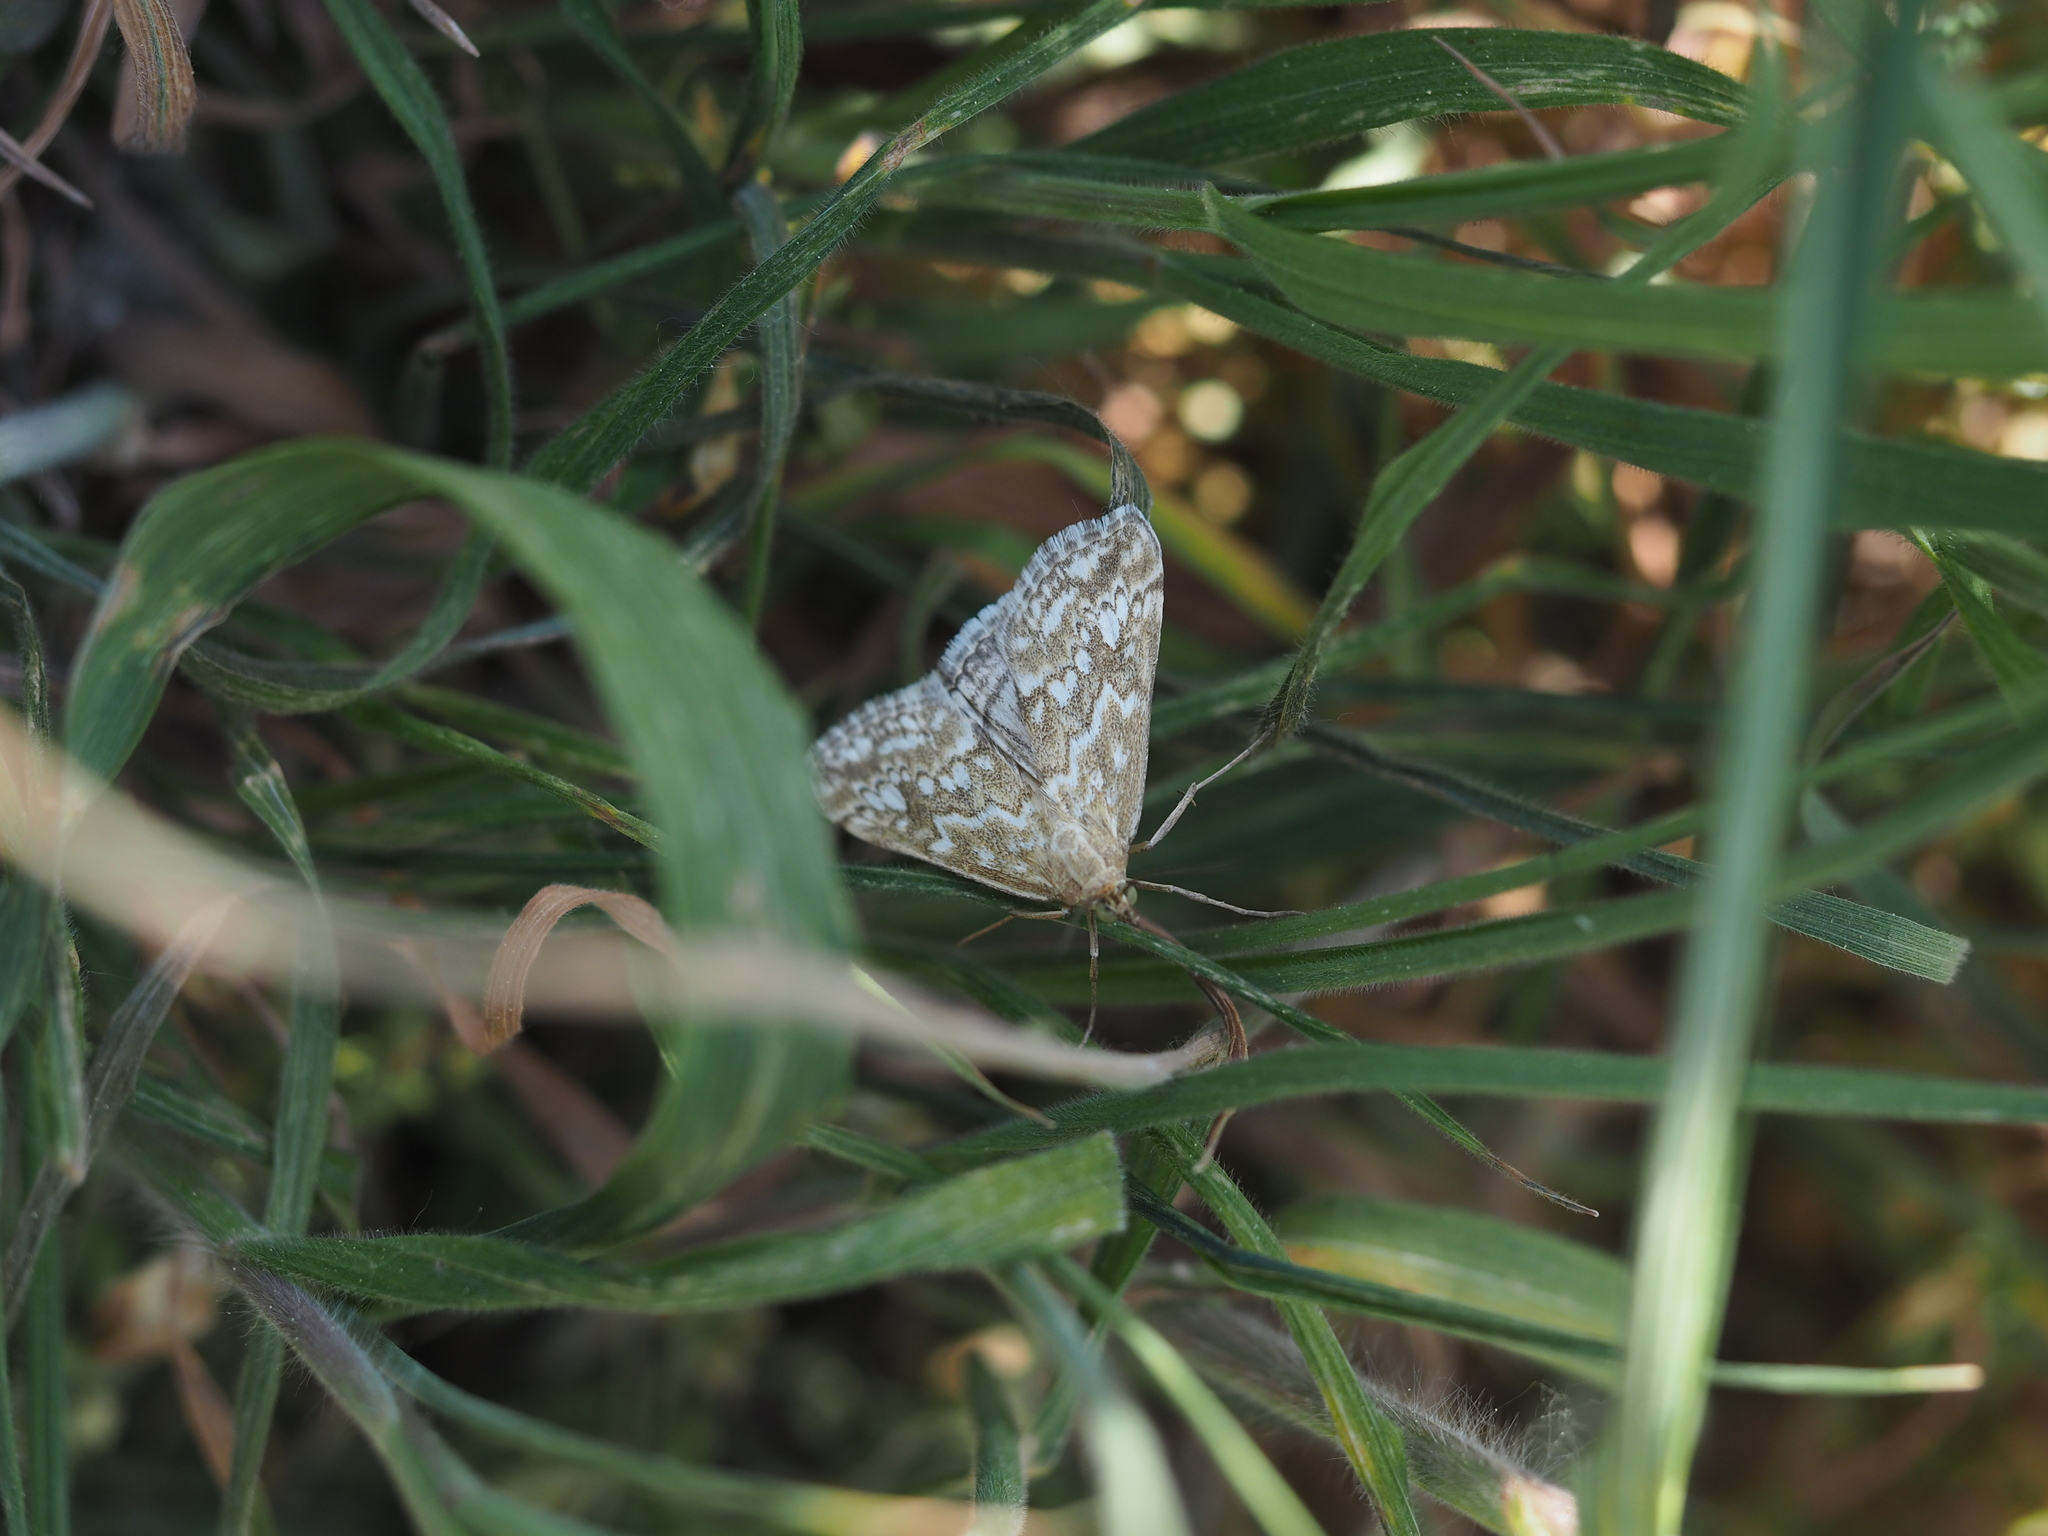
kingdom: Animalia
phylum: Arthropoda
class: Insecta
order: Lepidoptera
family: Crambidae
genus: Evergestis
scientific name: Evergestis frumentalis
